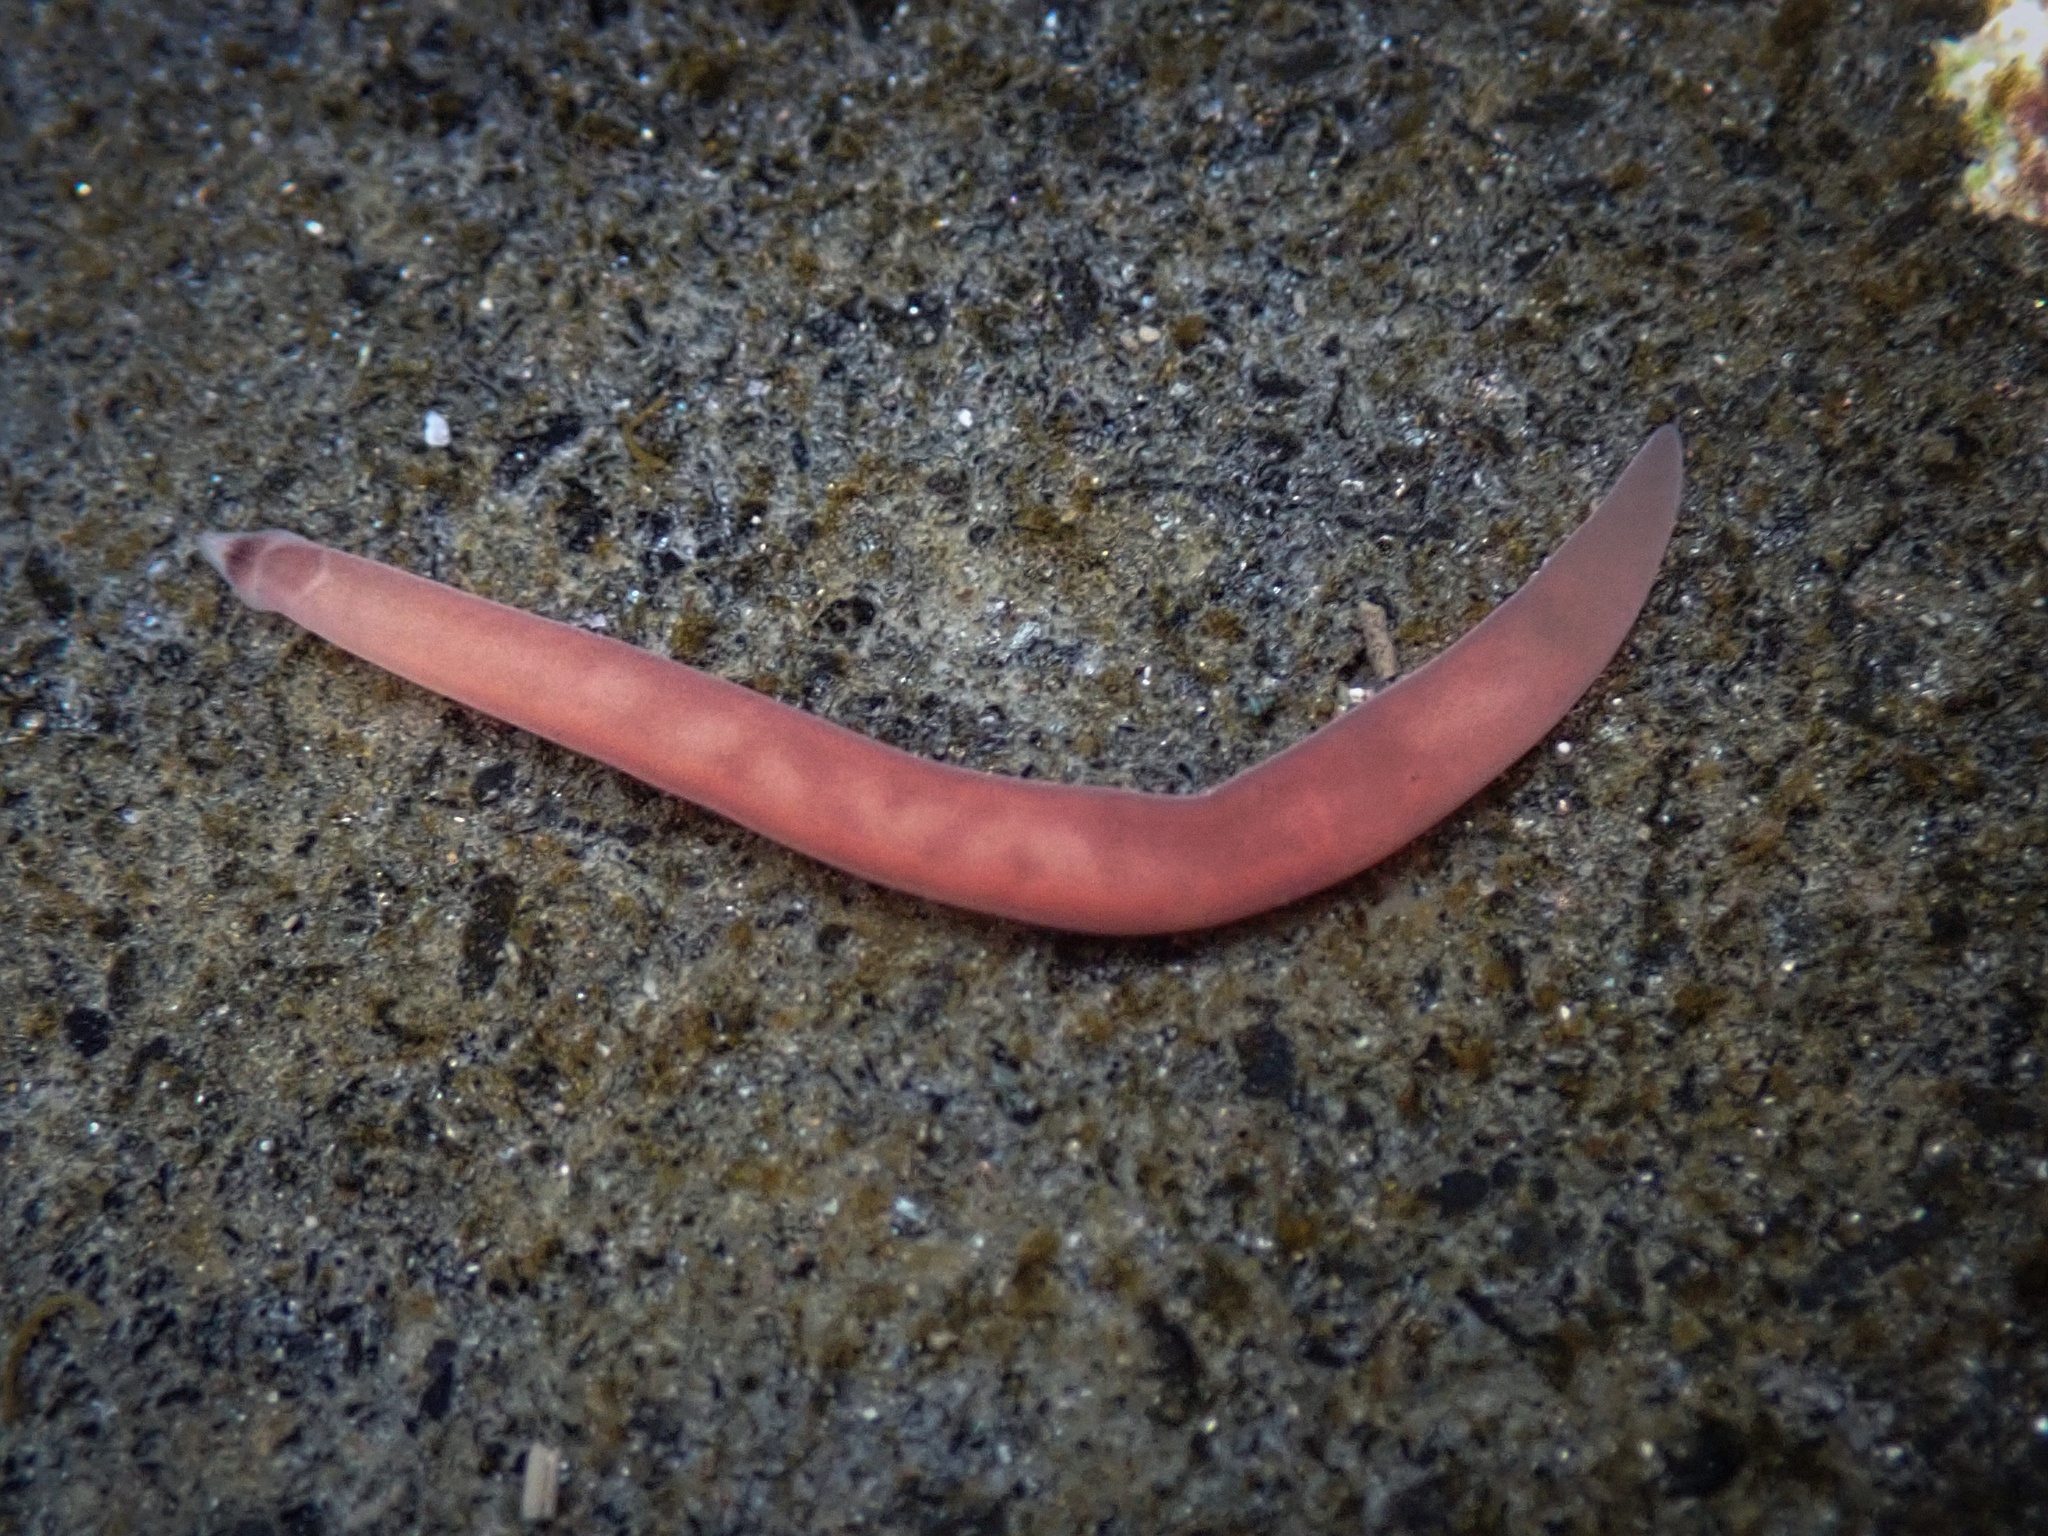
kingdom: Animalia
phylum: Nemertea
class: Hoplonemertea
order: Monostilifera
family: Neesiidae
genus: Paranemertes
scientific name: Paranemertes peregrina
